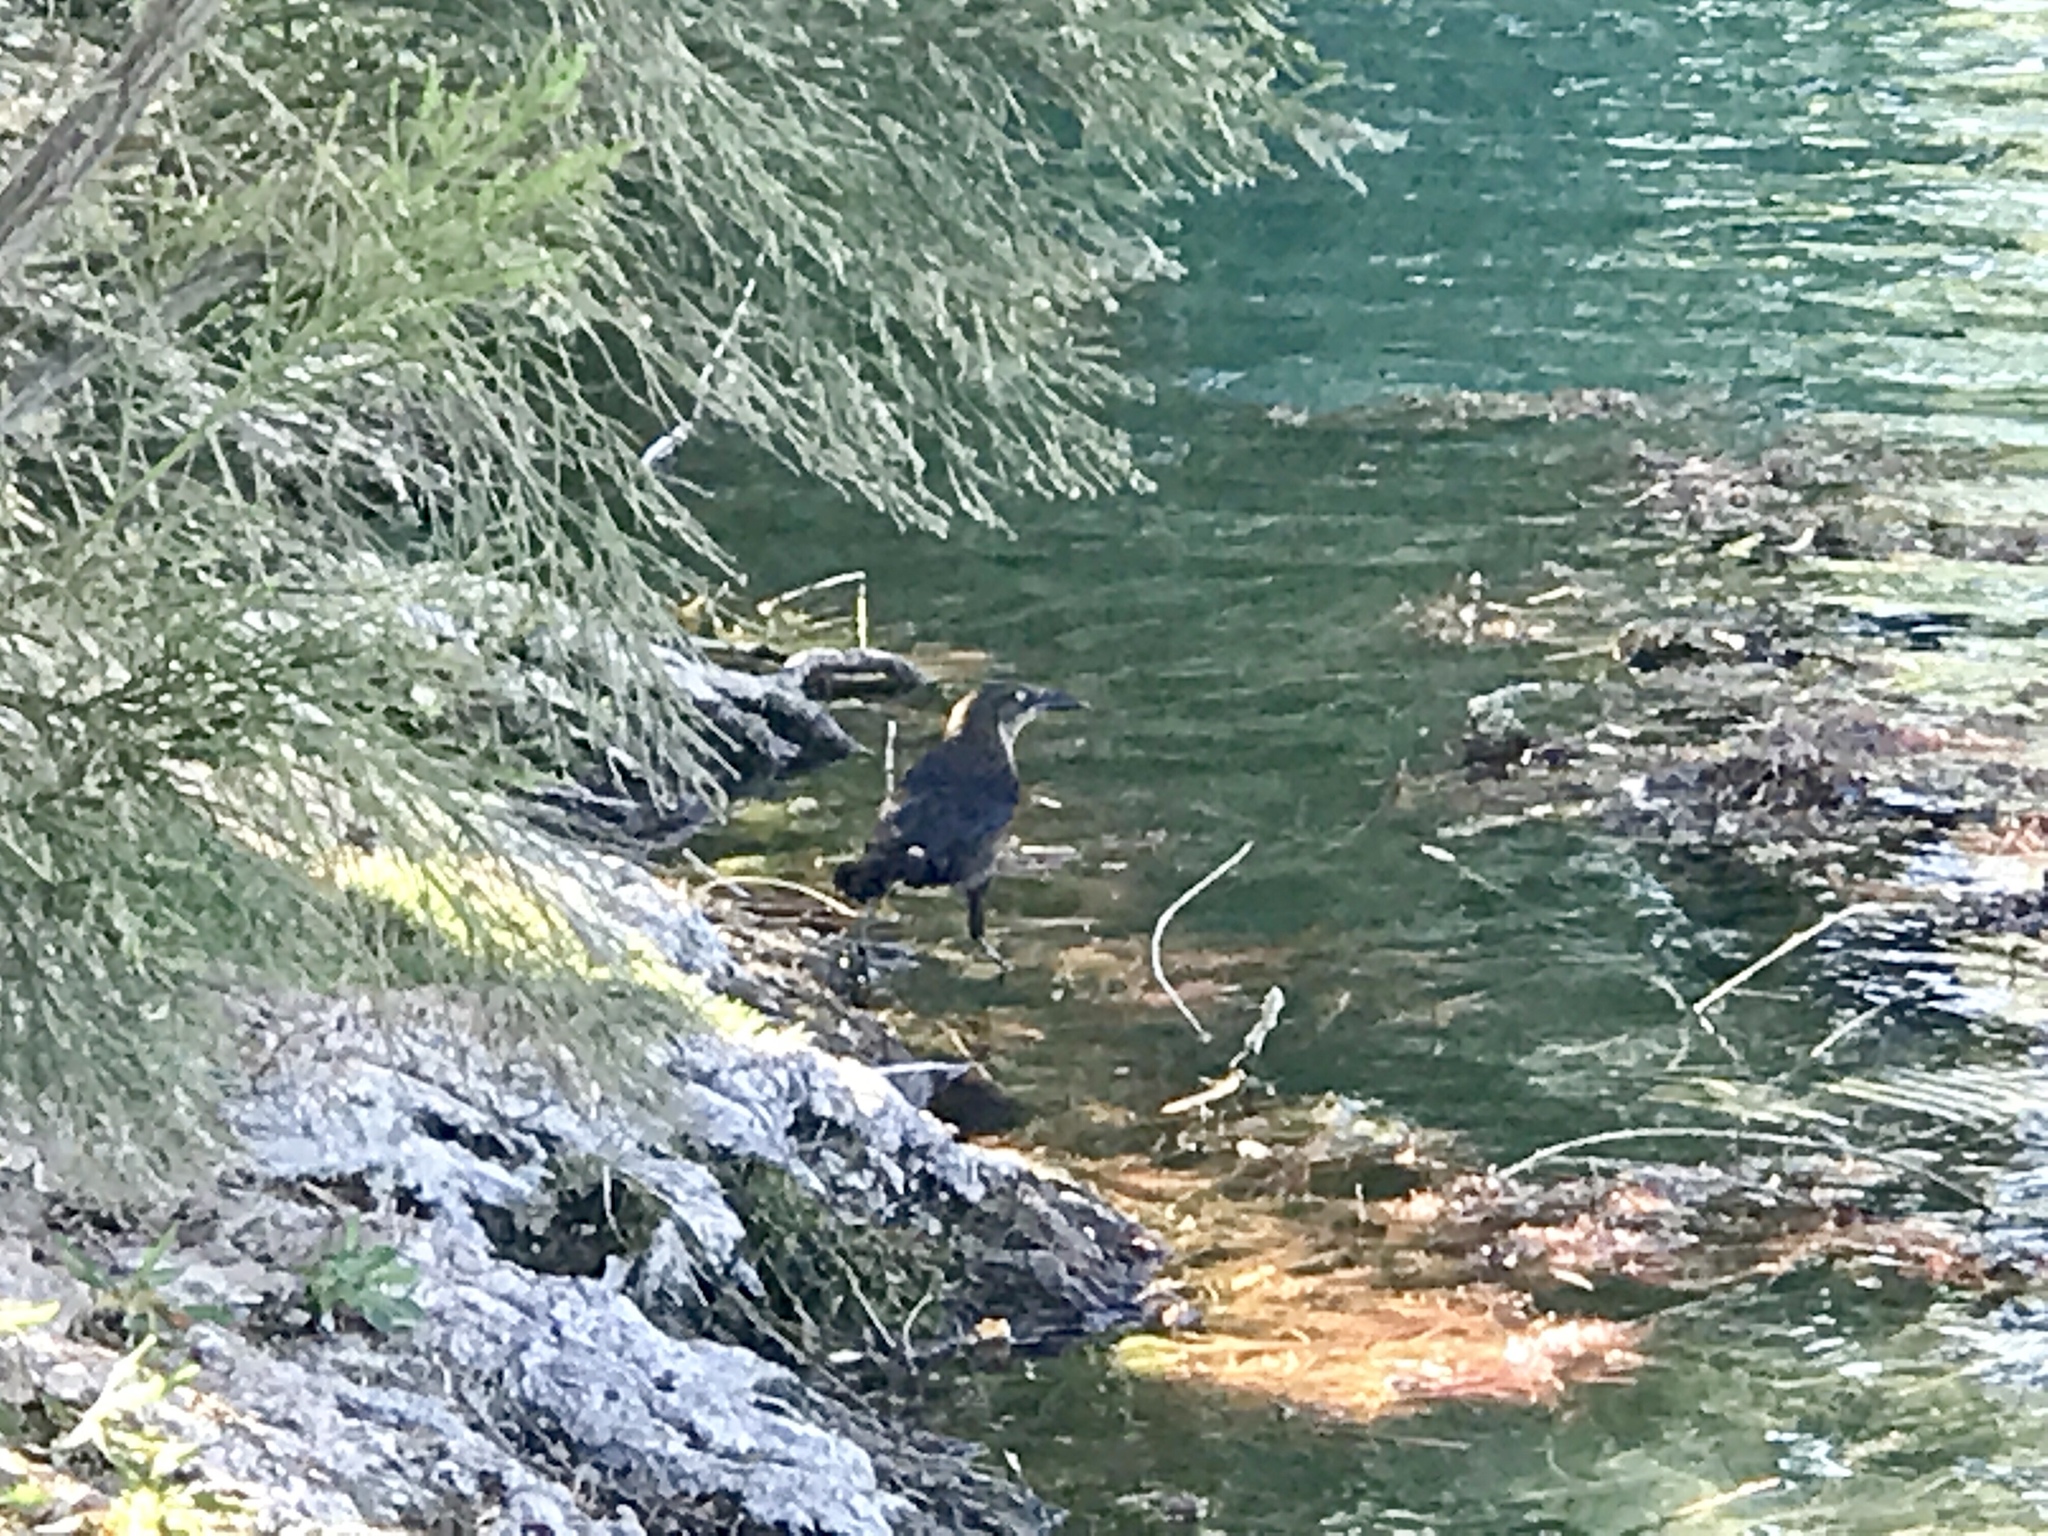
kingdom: Animalia
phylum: Chordata
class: Aves
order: Passeriformes
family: Icteridae
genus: Quiscalus
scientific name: Quiscalus mexicanus
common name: Great-tailed grackle
